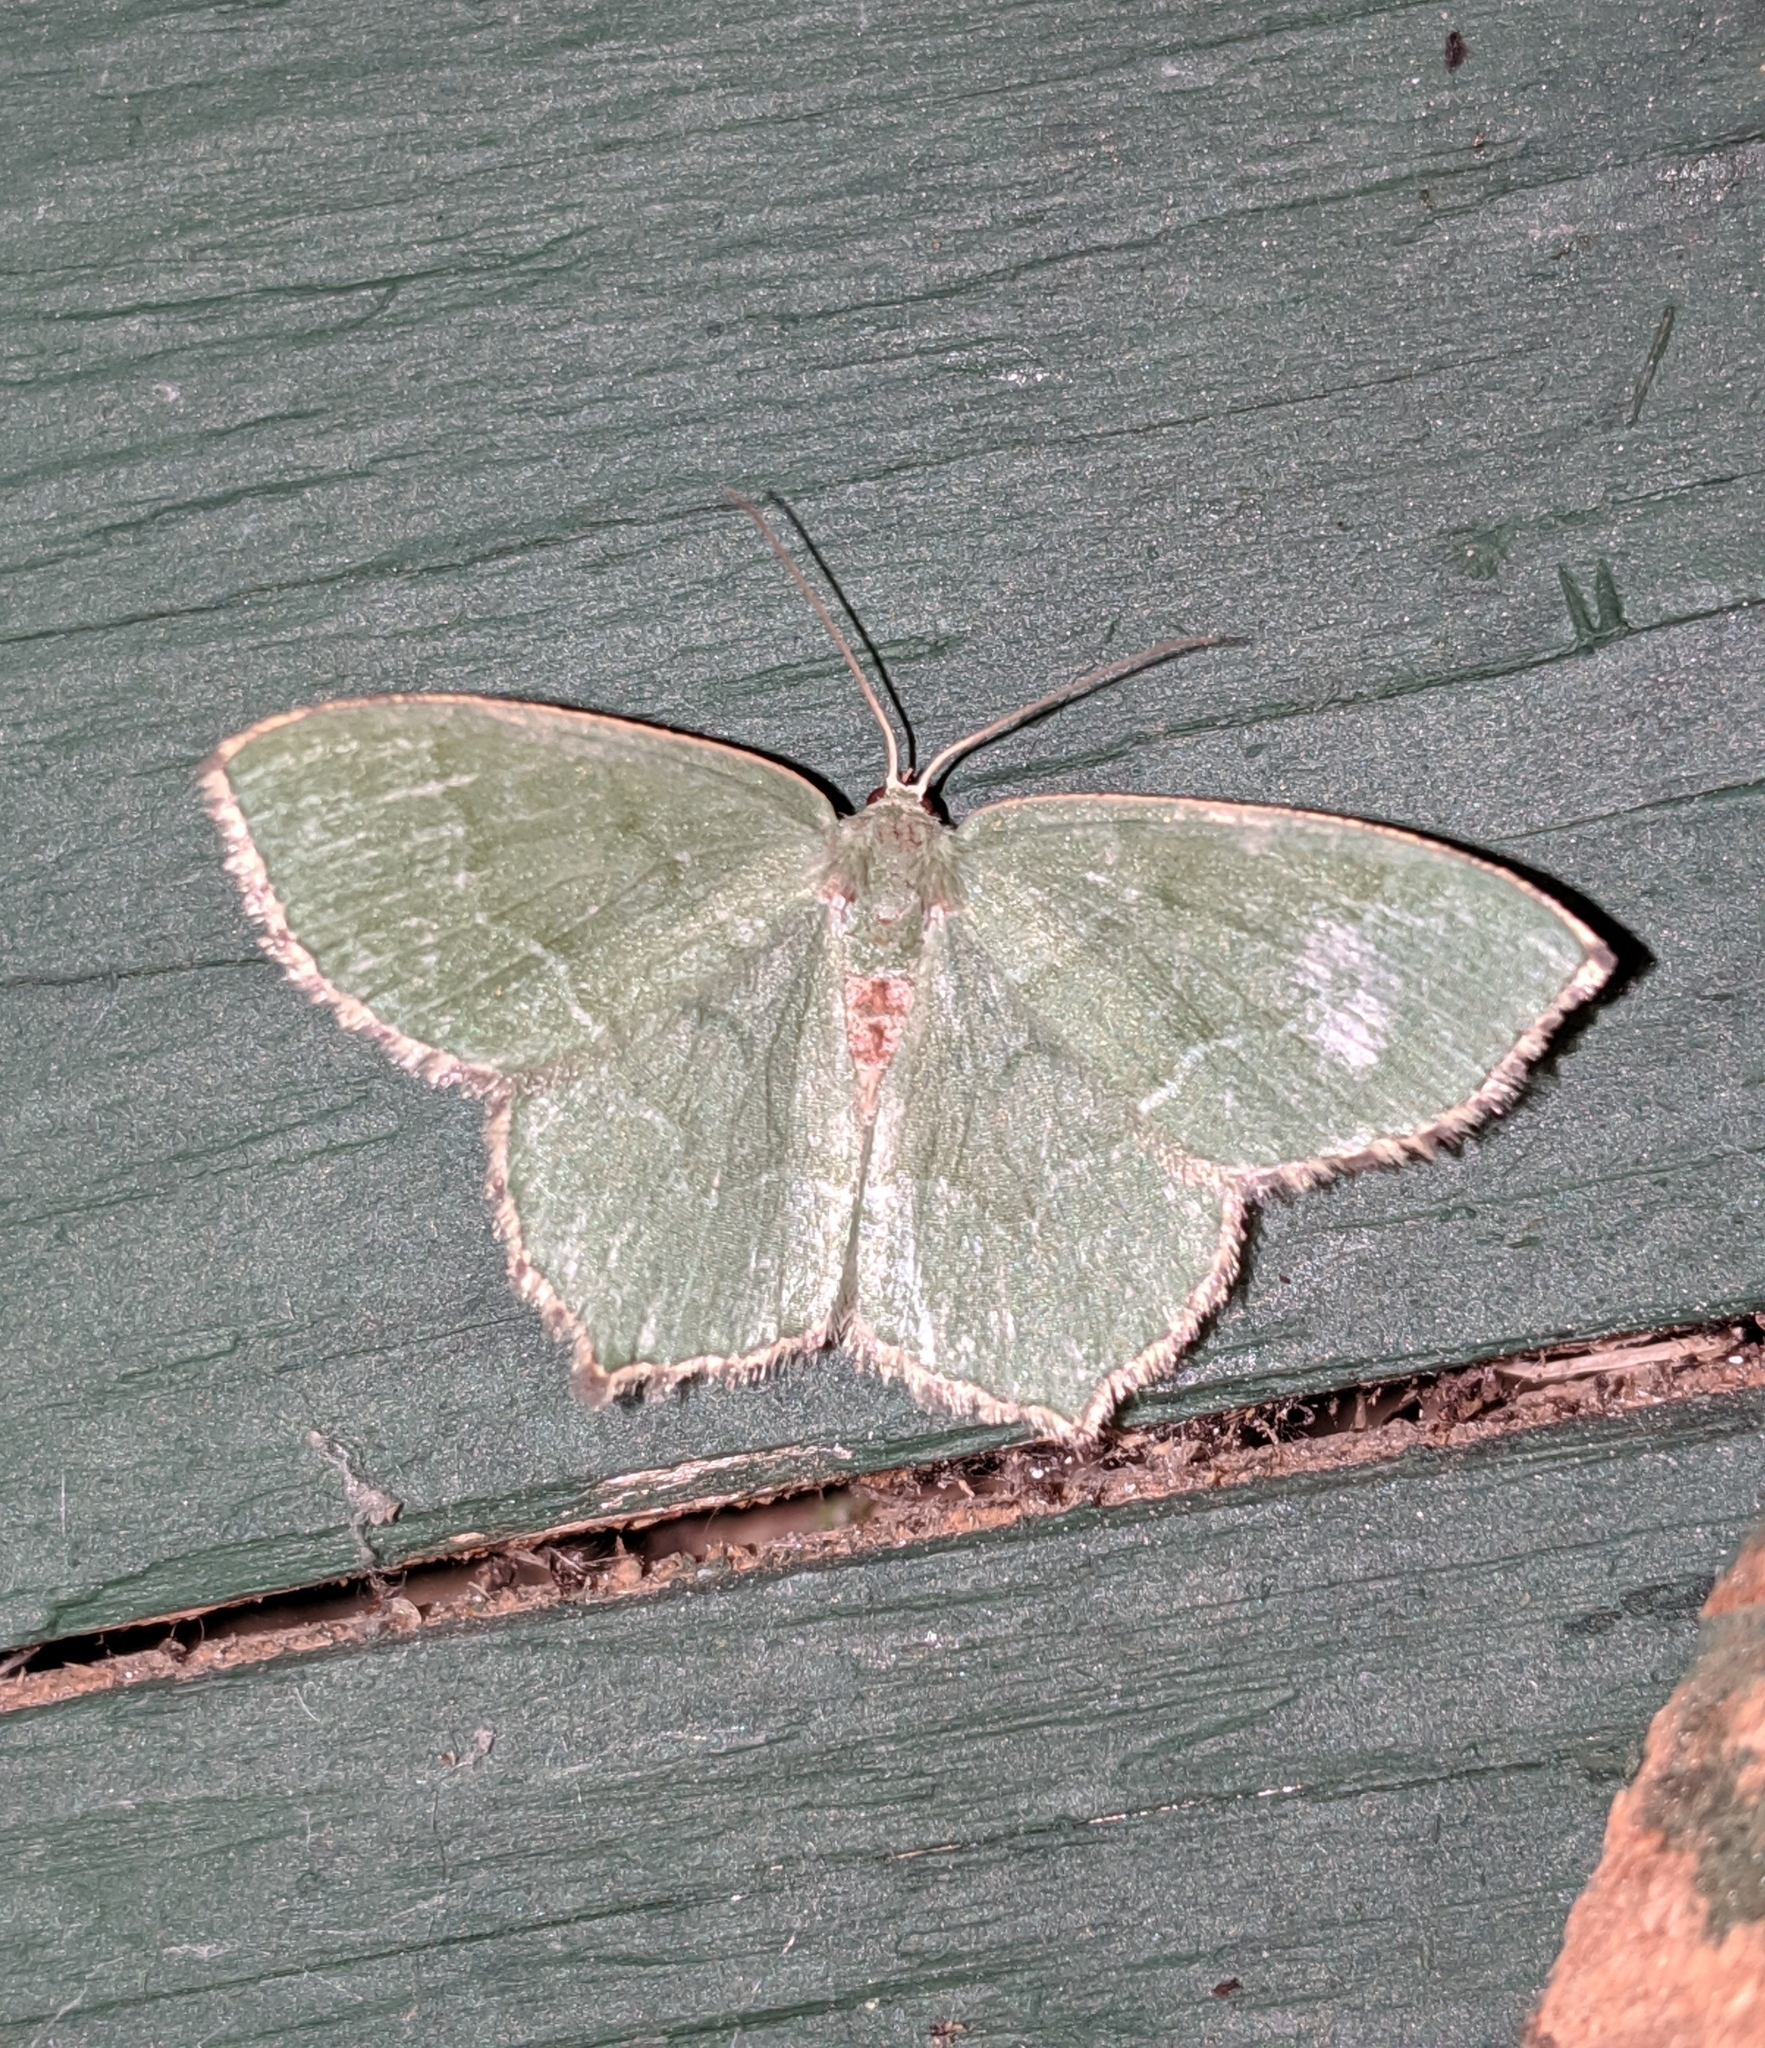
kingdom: Animalia
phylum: Arthropoda
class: Insecta
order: Lepidoptera
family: Geometridae
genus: Hemithea
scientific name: Hemithea aestivaria
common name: Common emerald
